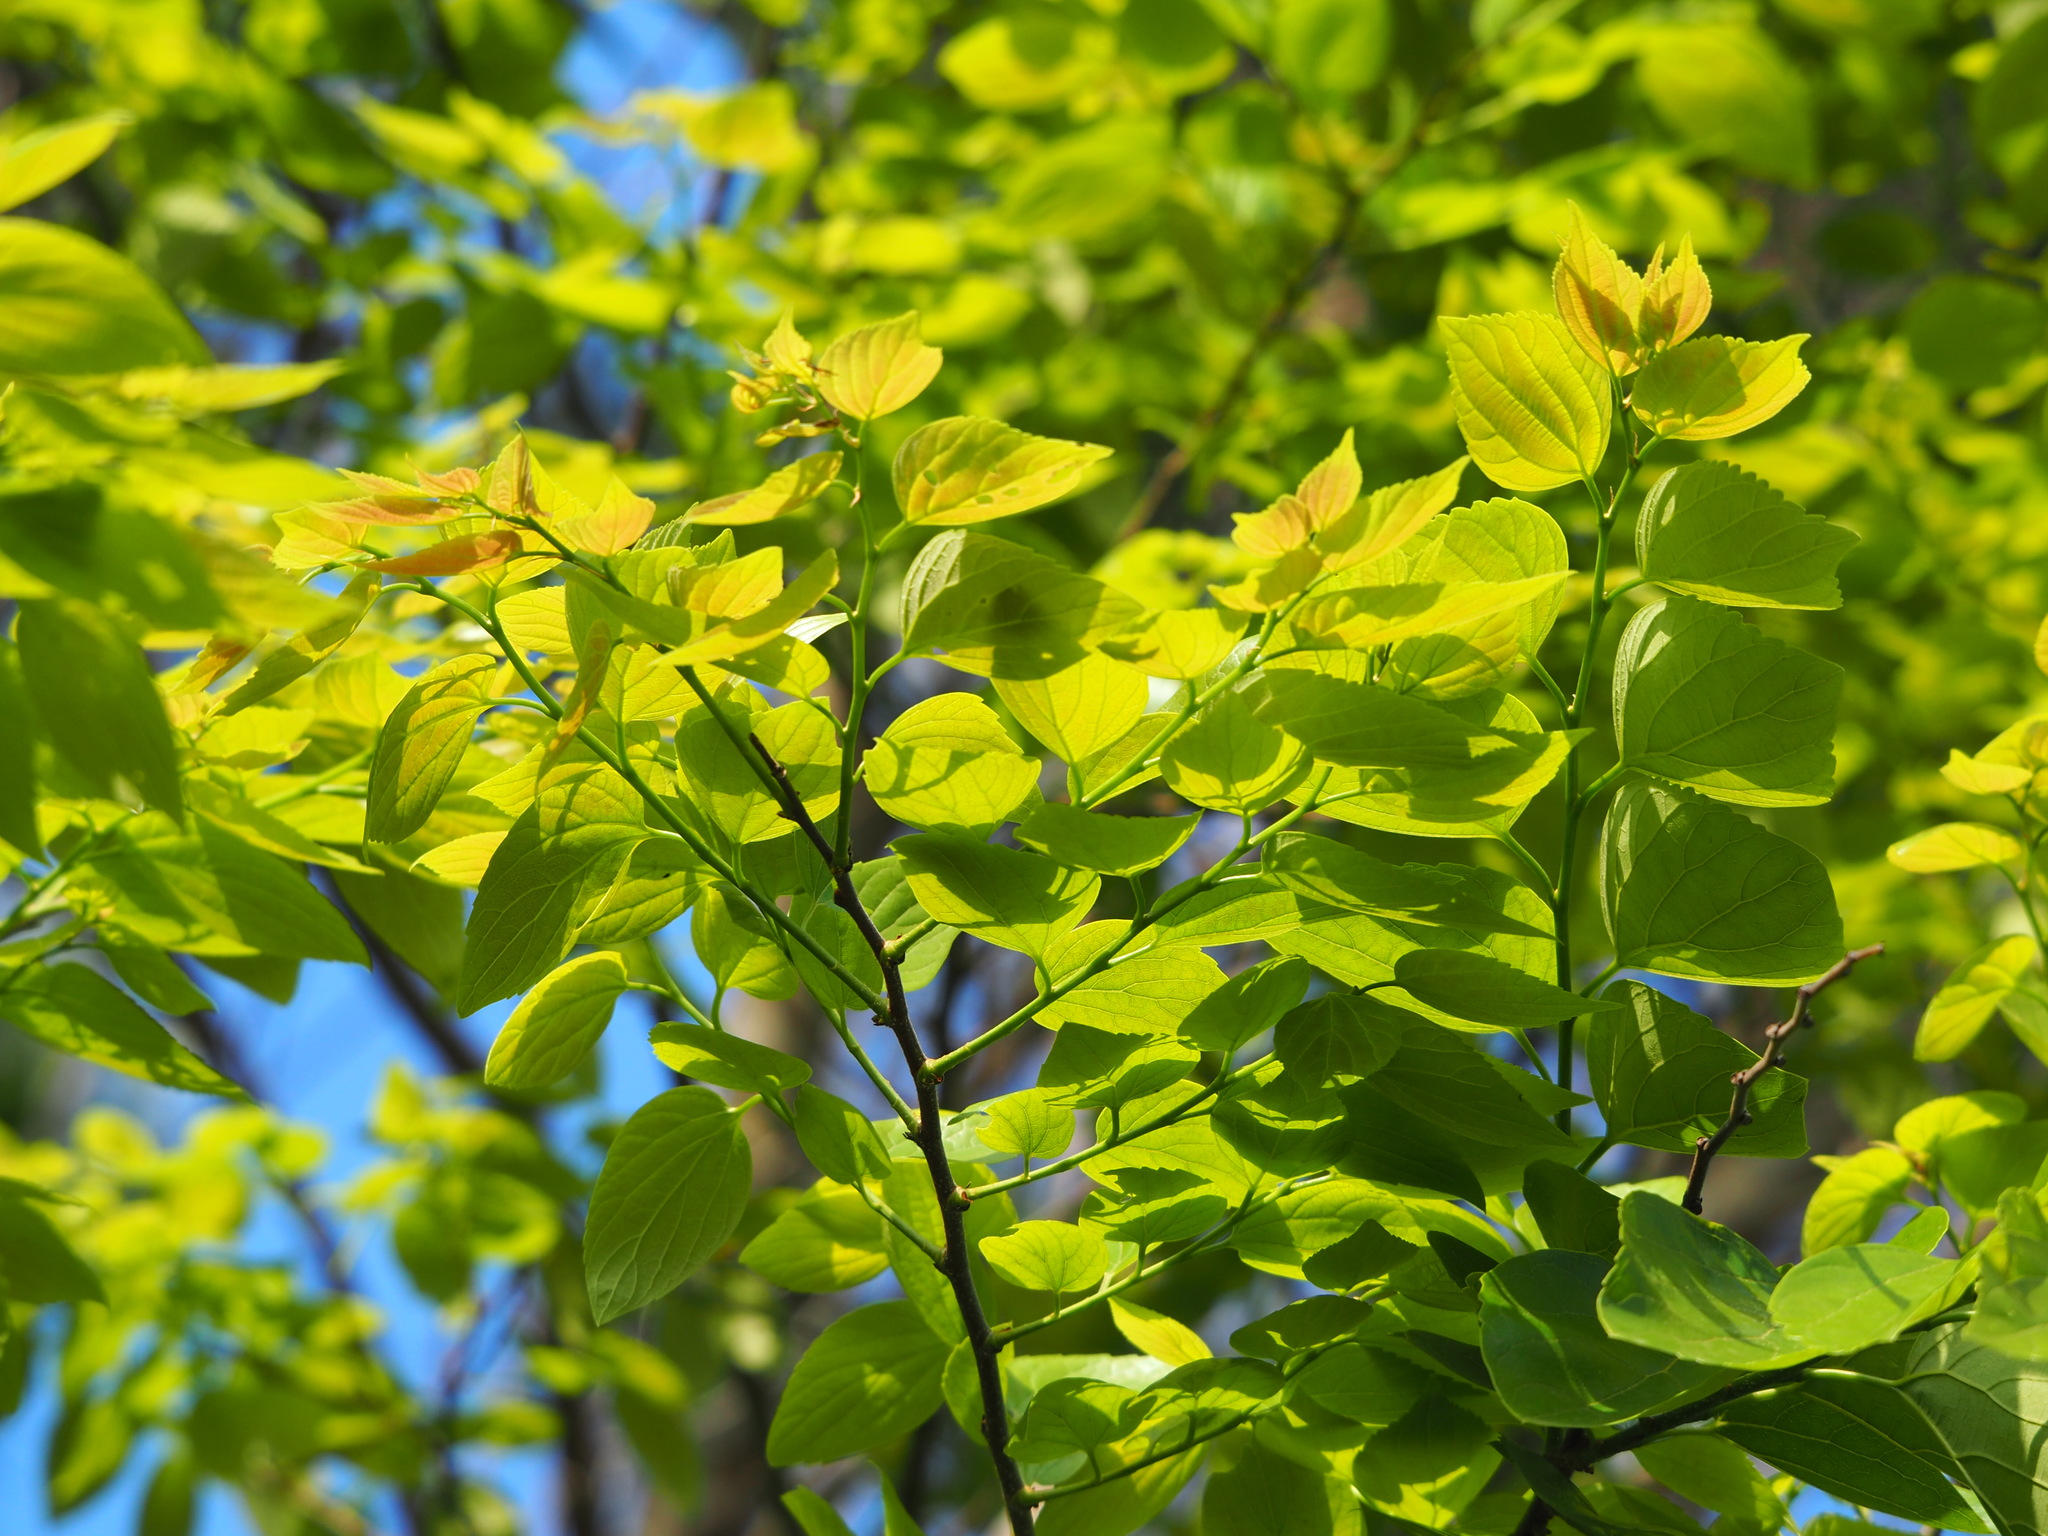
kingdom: Plantae
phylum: Tracheophyta
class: Magnoliopsida
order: Rosales
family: Cannabaceae
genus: Celtis
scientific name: Celtis sinensis
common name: Chinese hackberry
